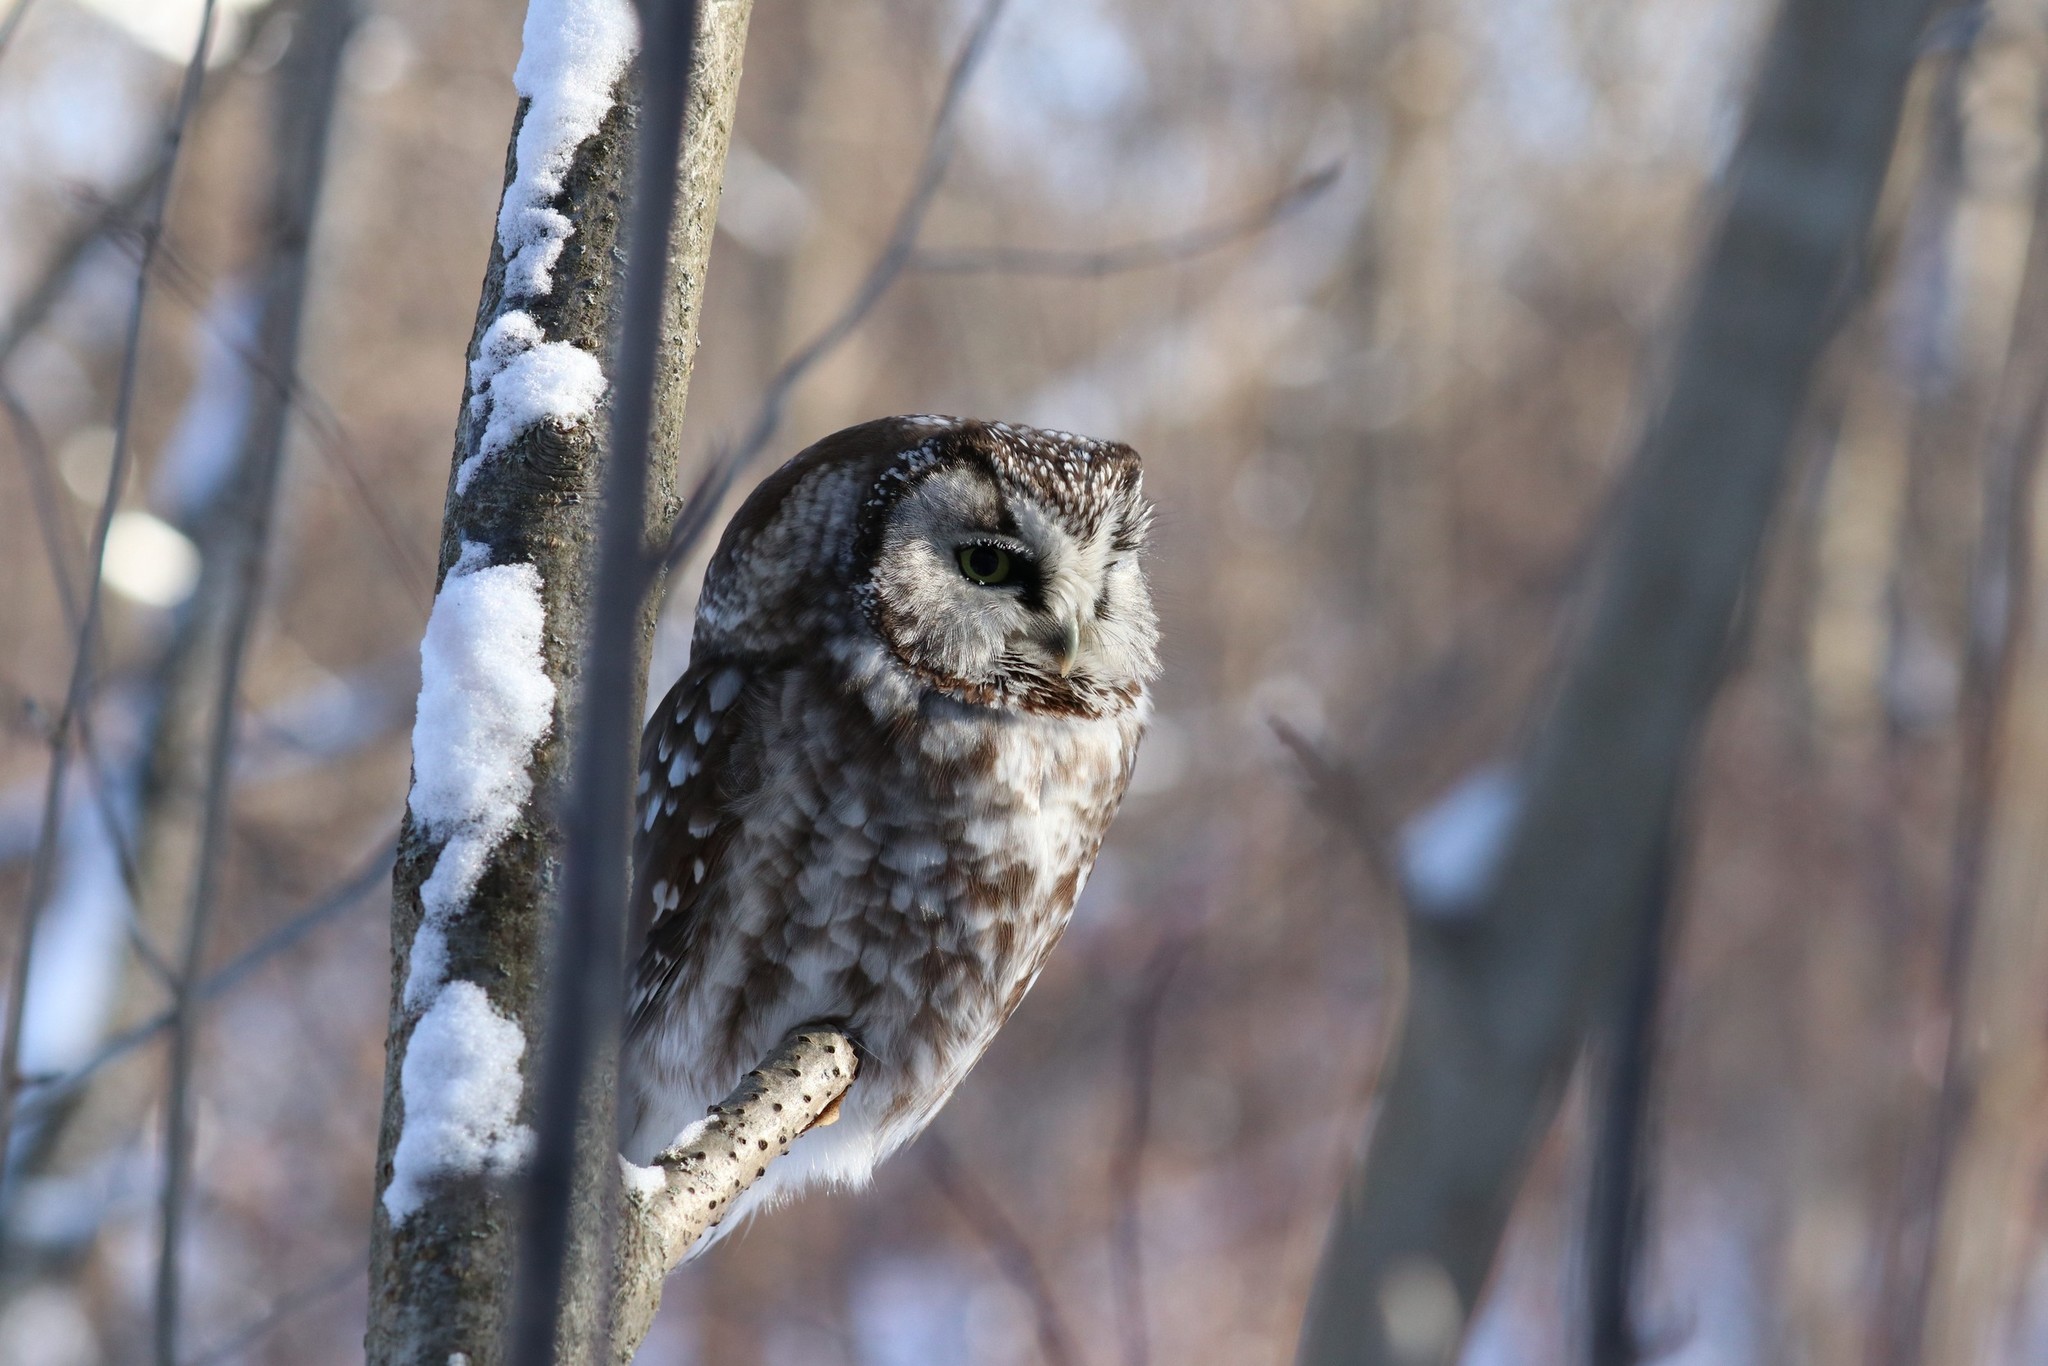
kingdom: Animalia
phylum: Chordata
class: Aves
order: Strigiformes
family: Strigidae
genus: Aegolius
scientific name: Aegolius funereus
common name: Boreal owl
